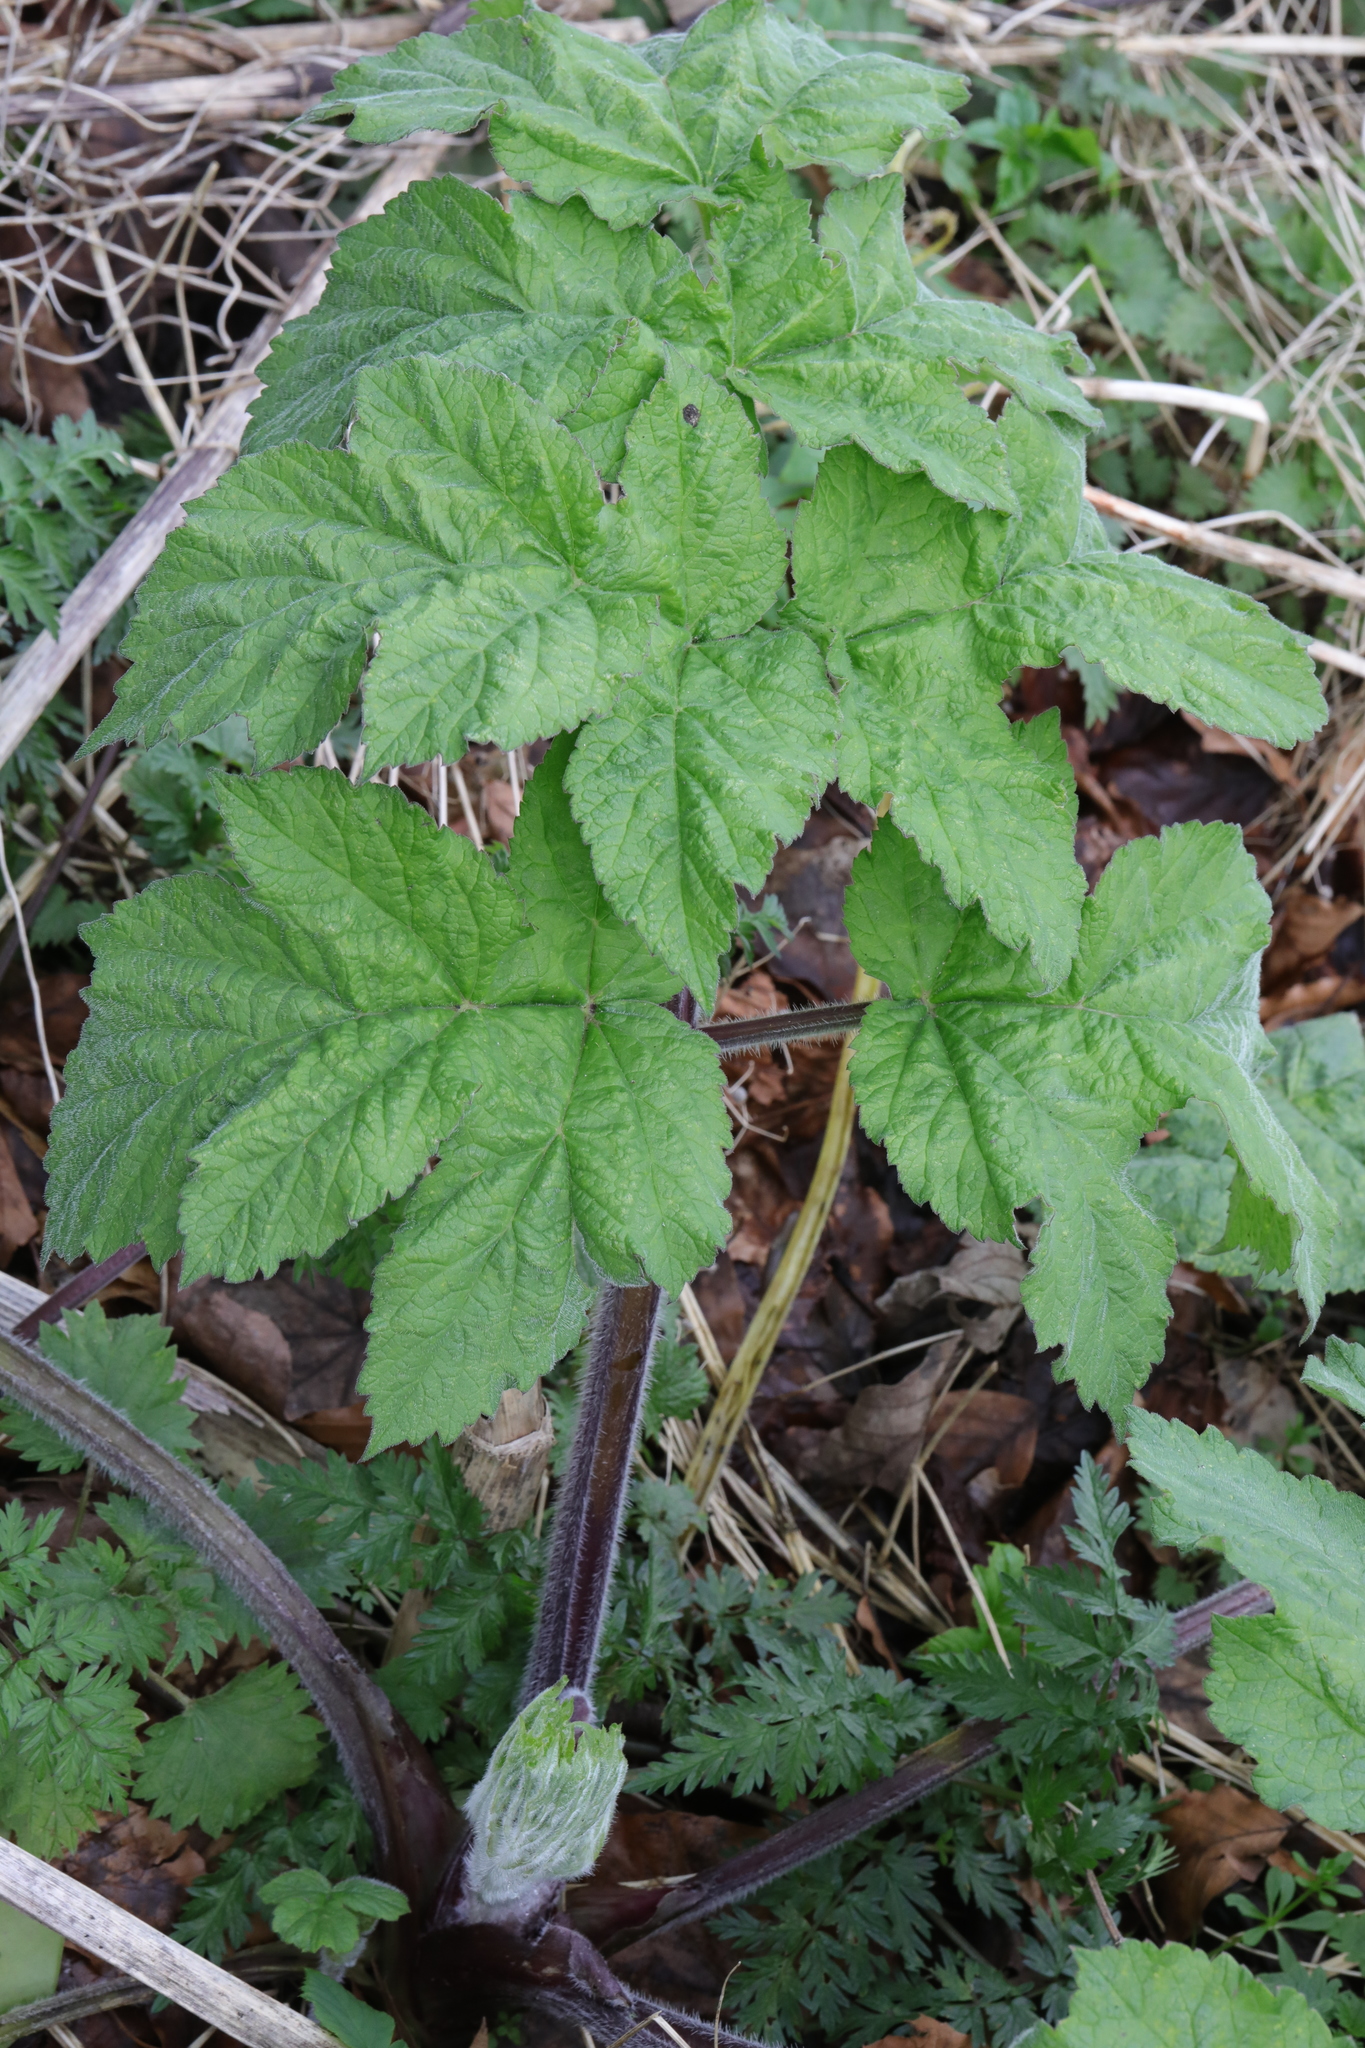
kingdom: Plantae
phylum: Tracheophyta
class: Magnoliopsida
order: Apiales
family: Apiaceae
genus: Heracleum
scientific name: Heracleum sphondylium
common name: Hogweed
